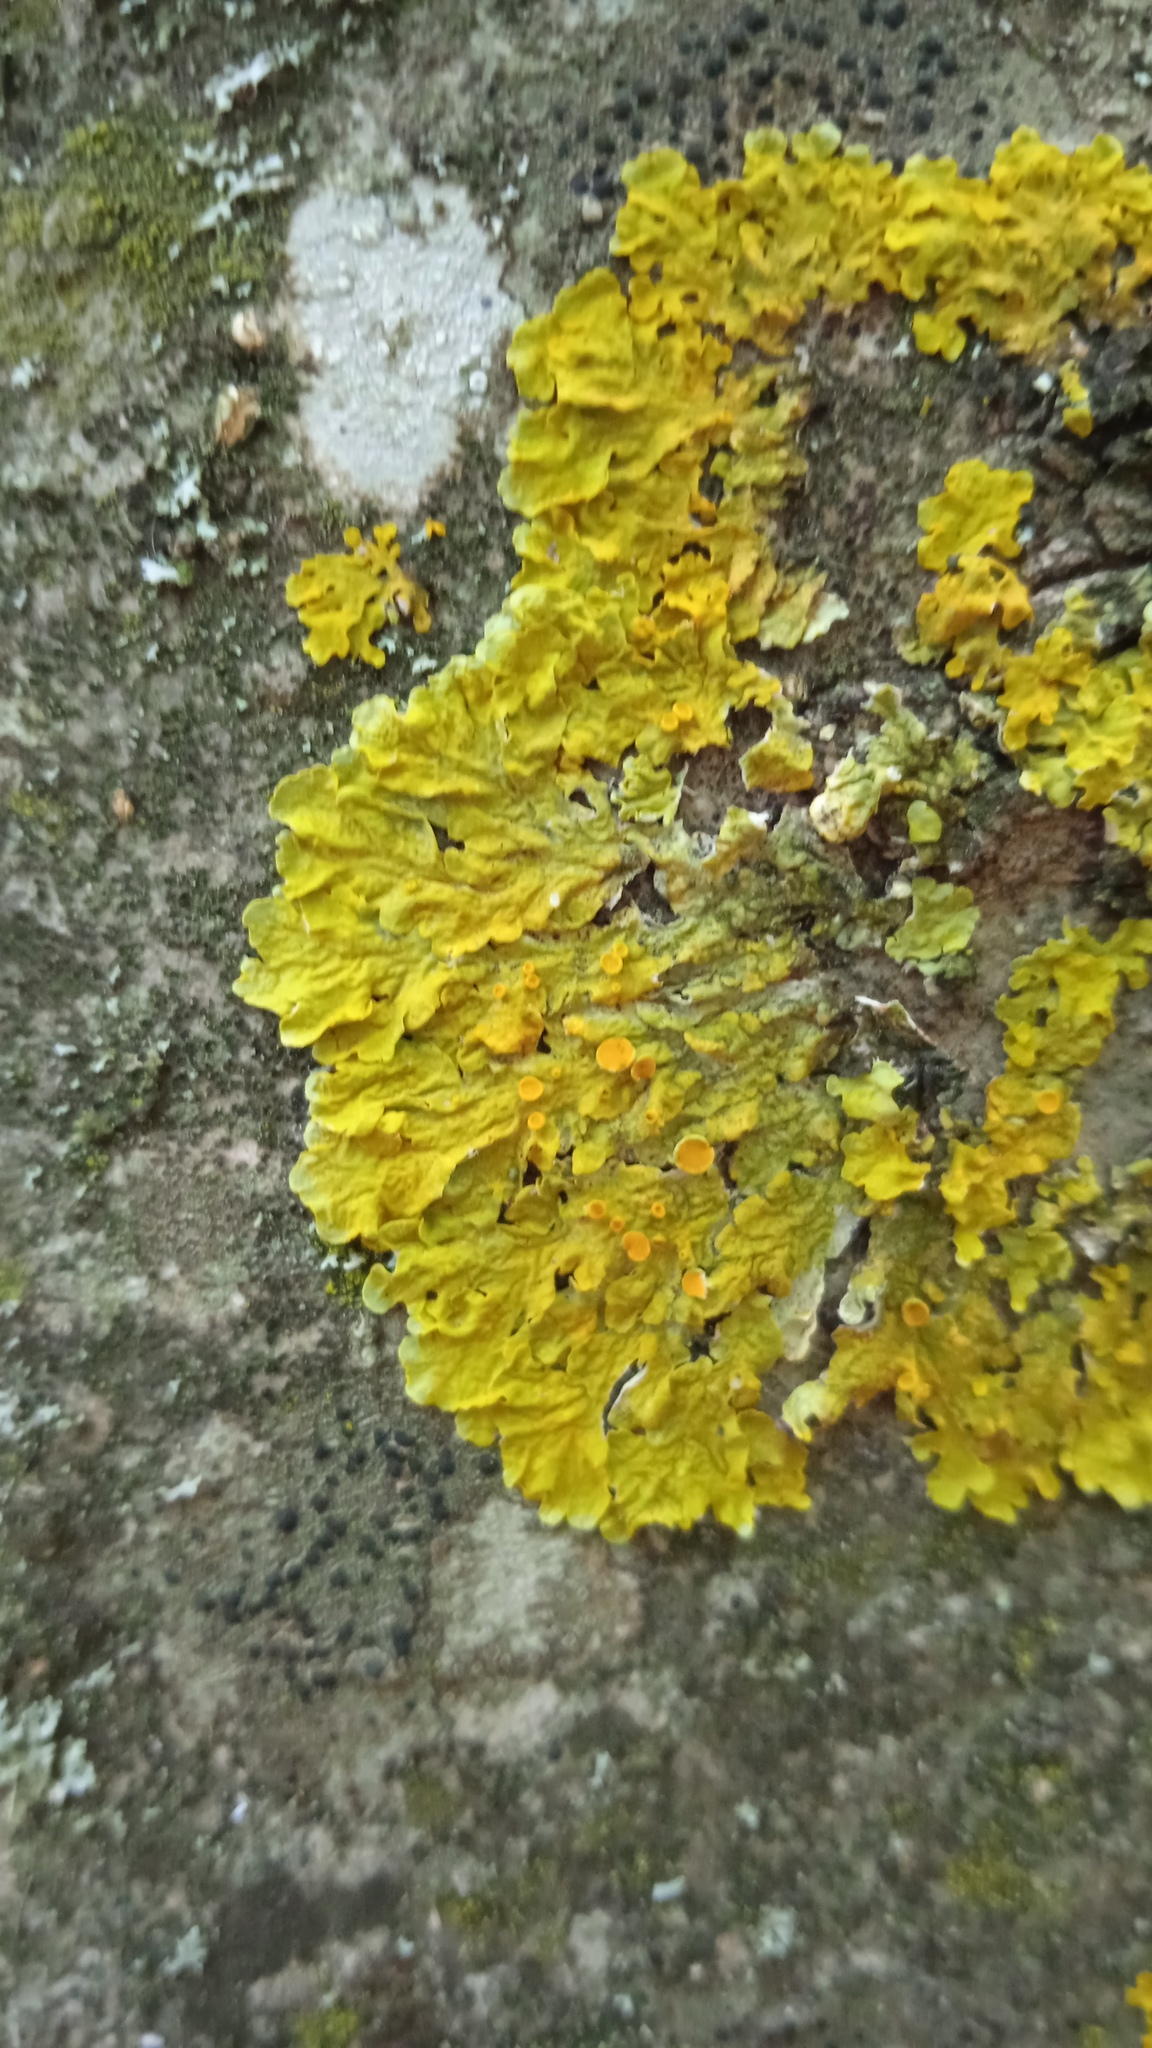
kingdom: Fungi
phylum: Ascomycota
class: Lecanoromycetes
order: Teloschistales
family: Teloschistaceae
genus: Xanthoria
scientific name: Xanthoria parietina
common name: Common orange lichen
